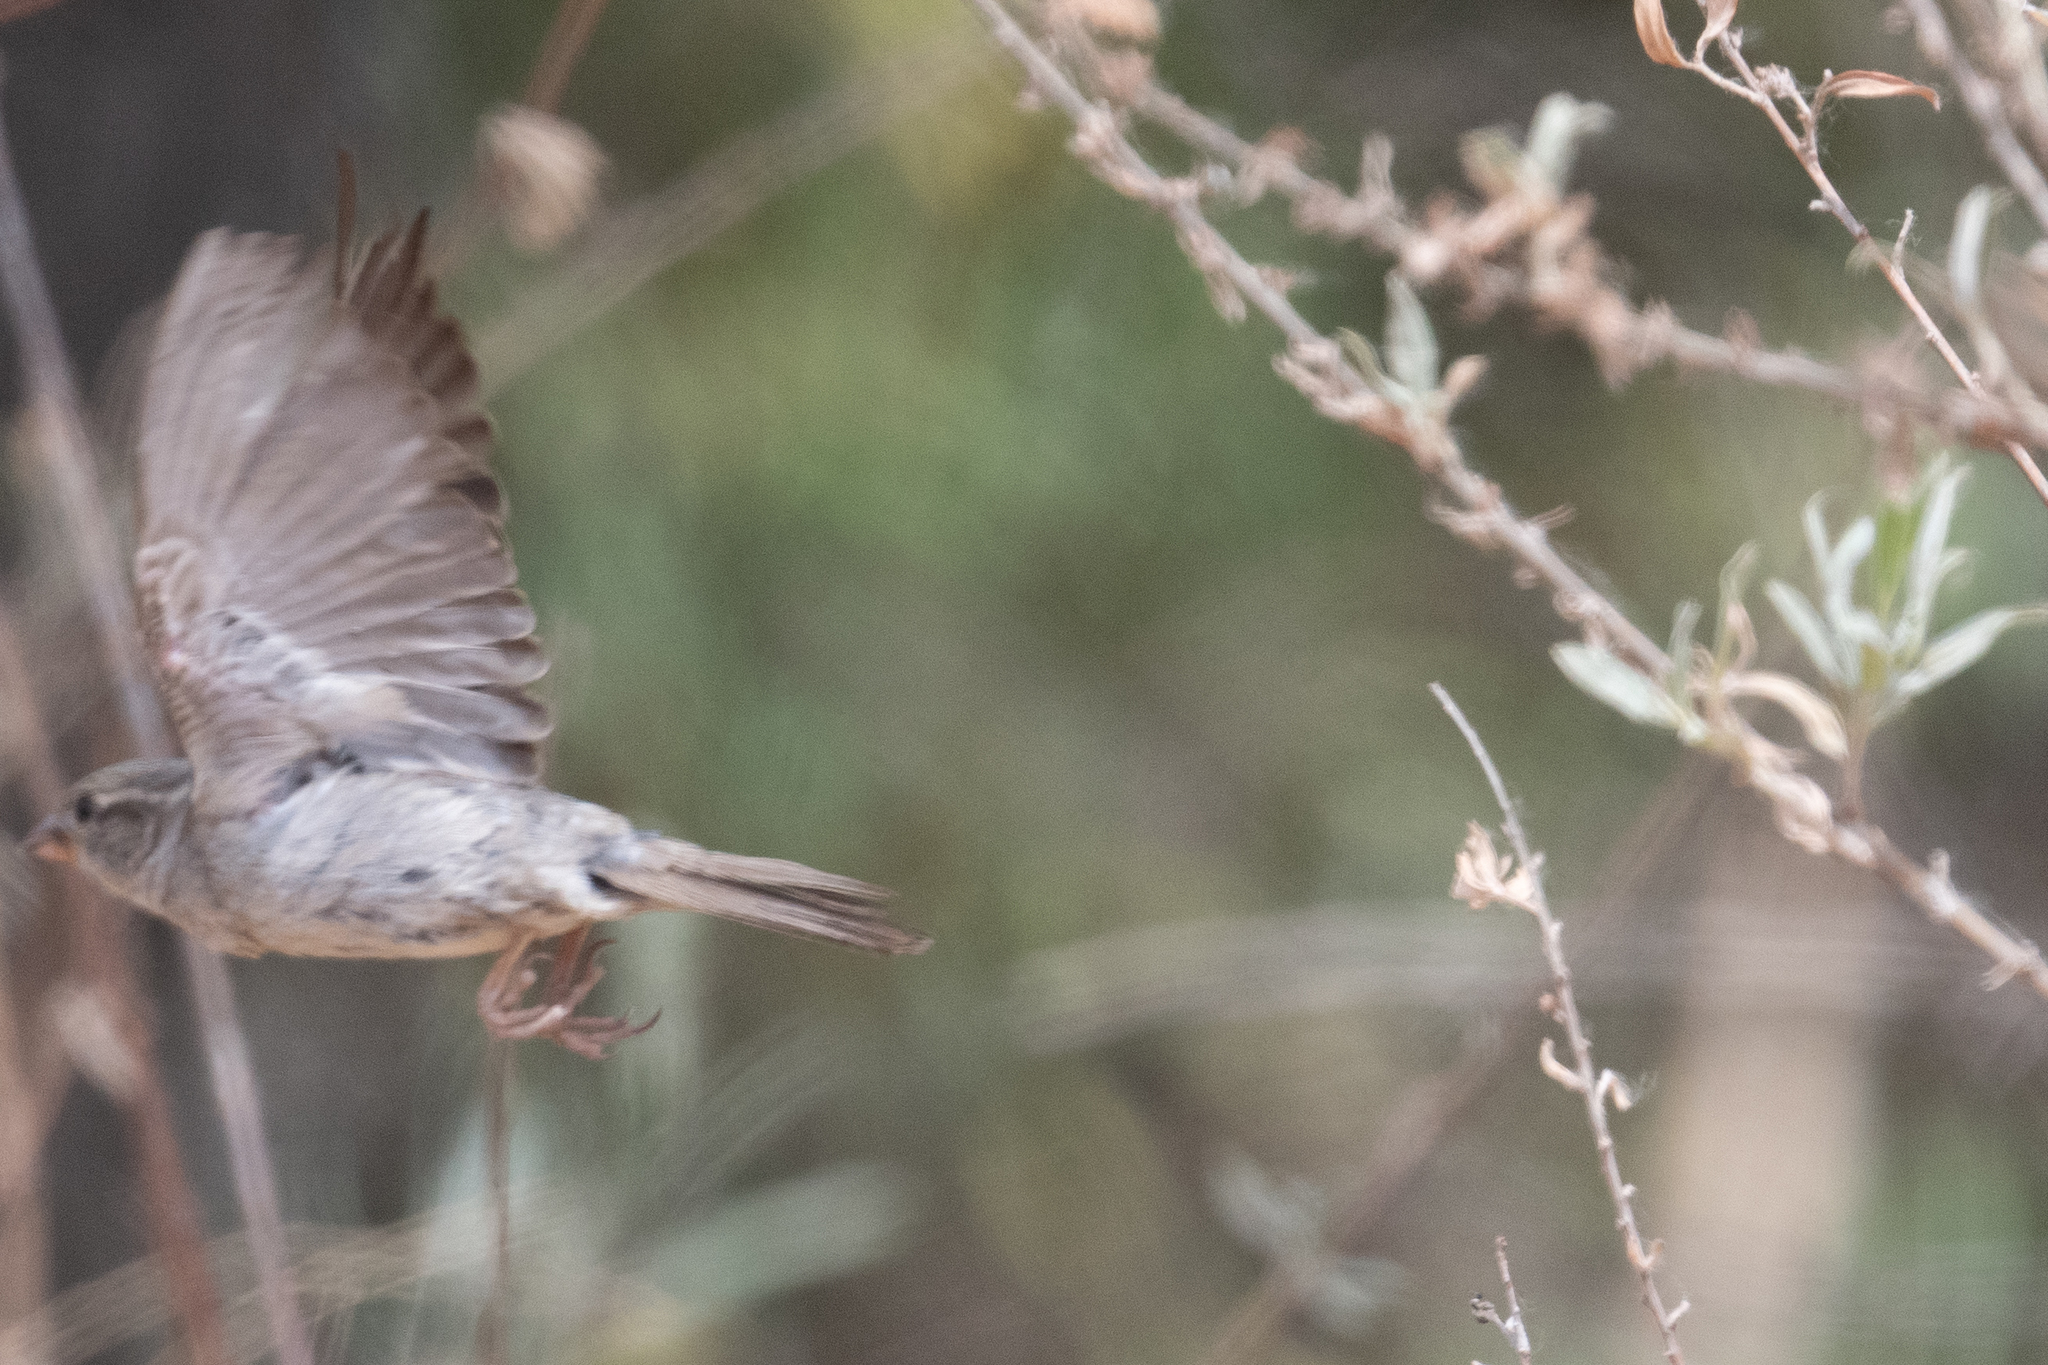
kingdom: Animalia
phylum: Chordata
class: Aves
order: Passeriformes
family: Passeridae
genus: Passer
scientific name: Passer domesticus
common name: House sparrow
